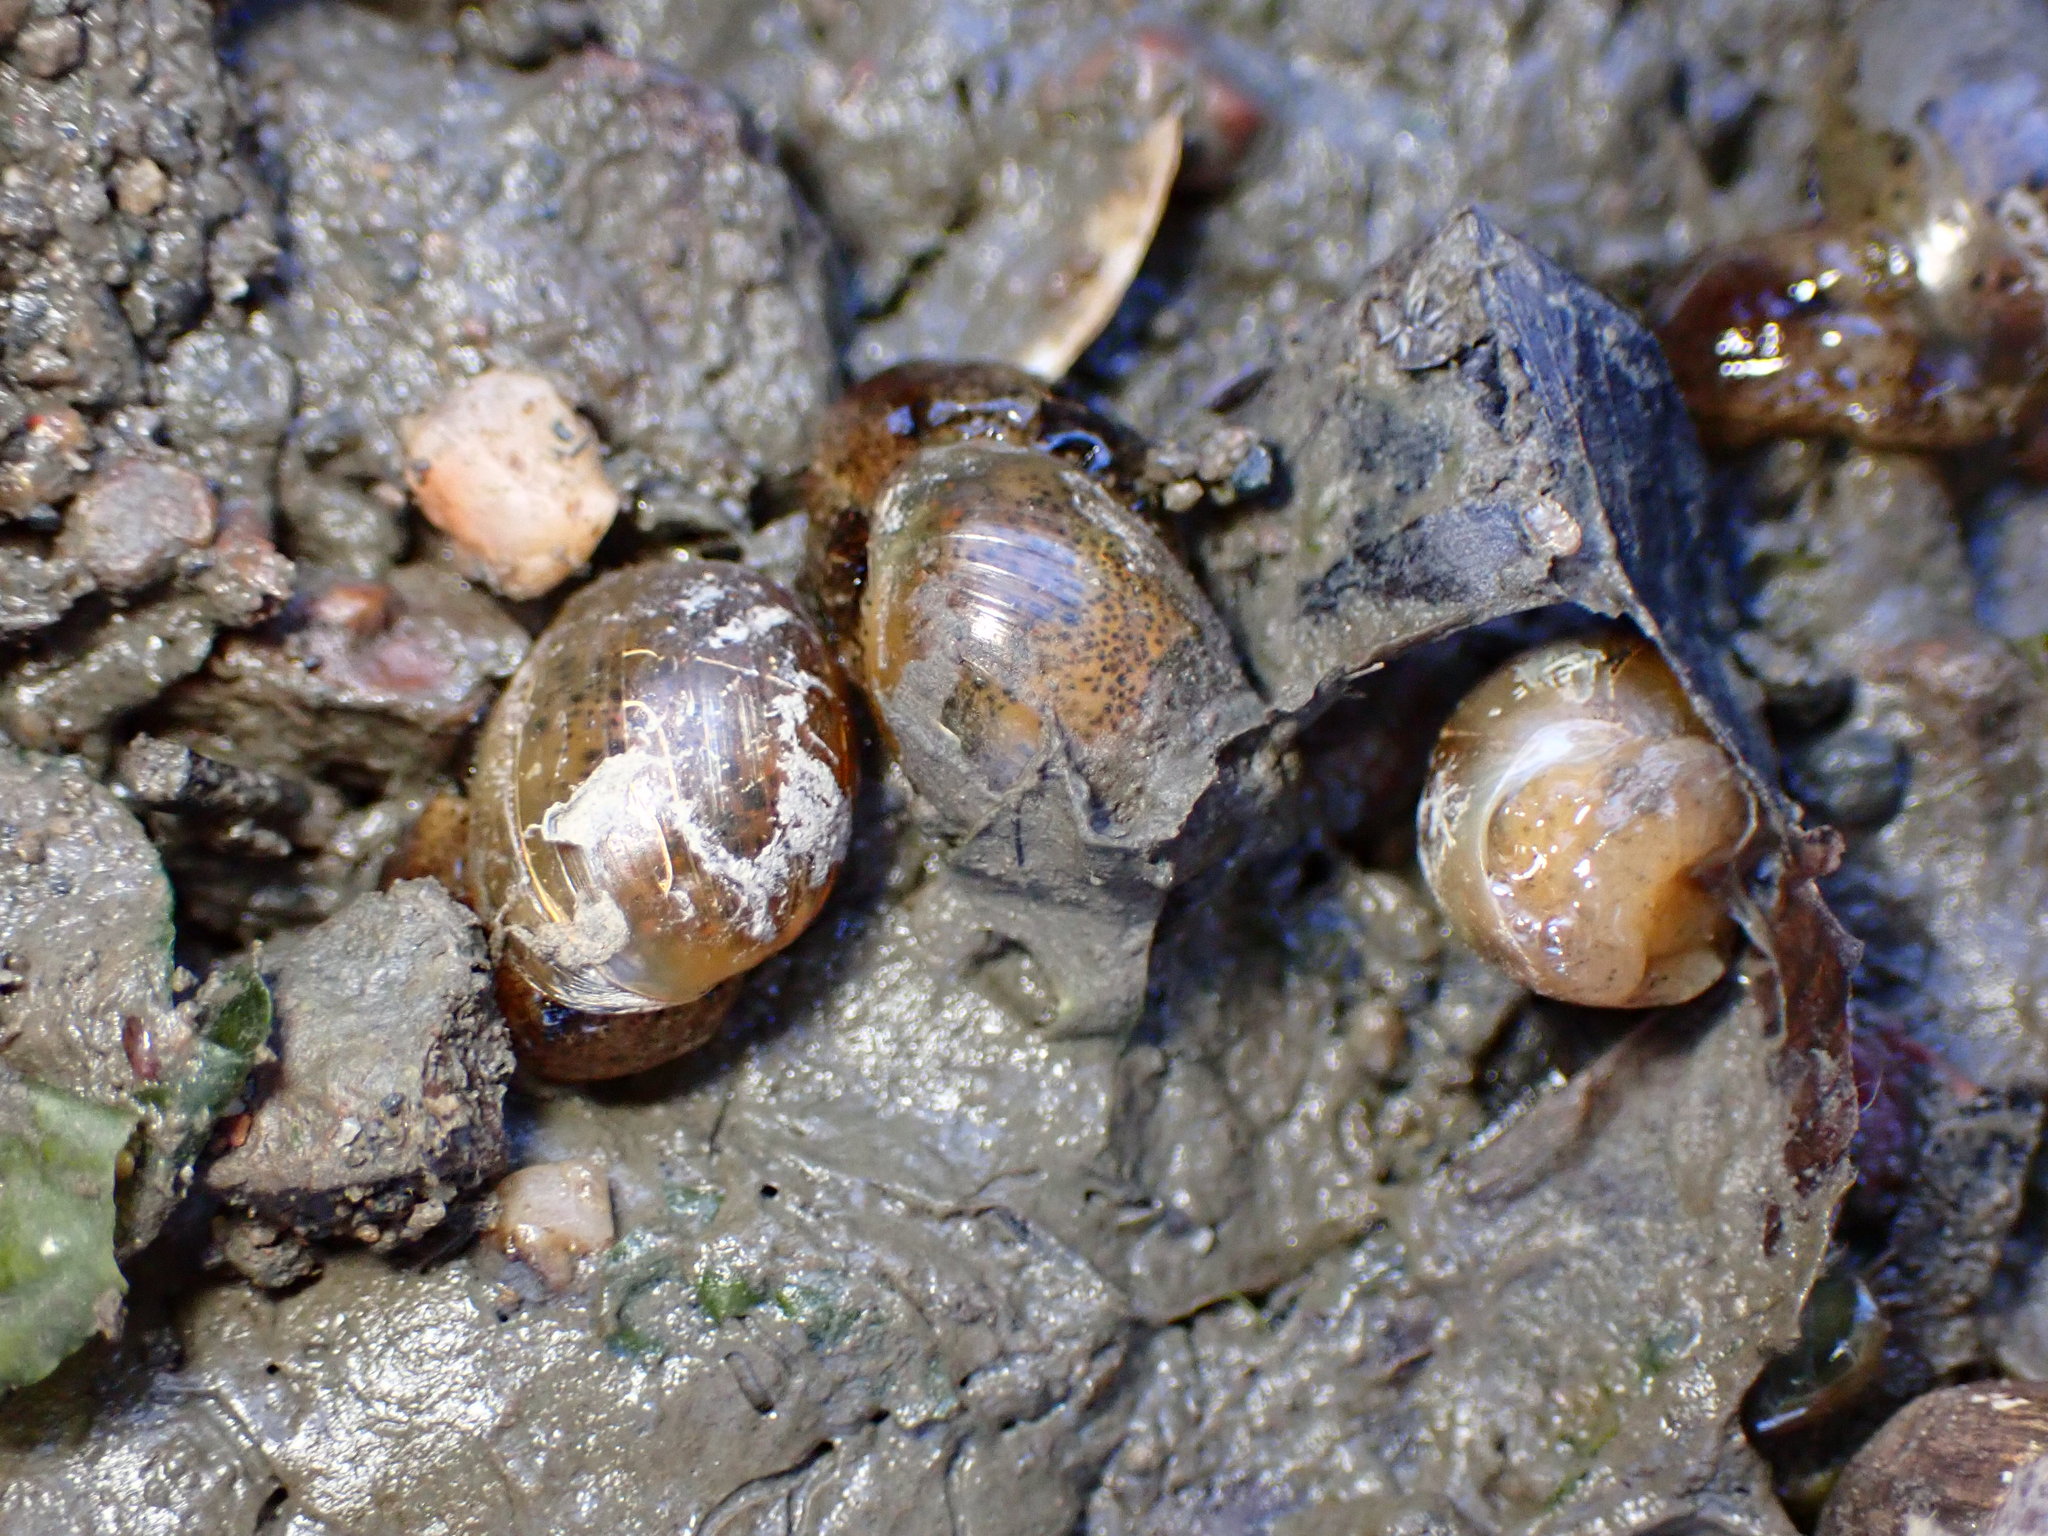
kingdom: Animalia
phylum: Mollusca
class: Gastropoda
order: Cephalaspidea
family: Haminoeidae
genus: Haloa
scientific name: Haloa japonica
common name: Japanese bubble snail
